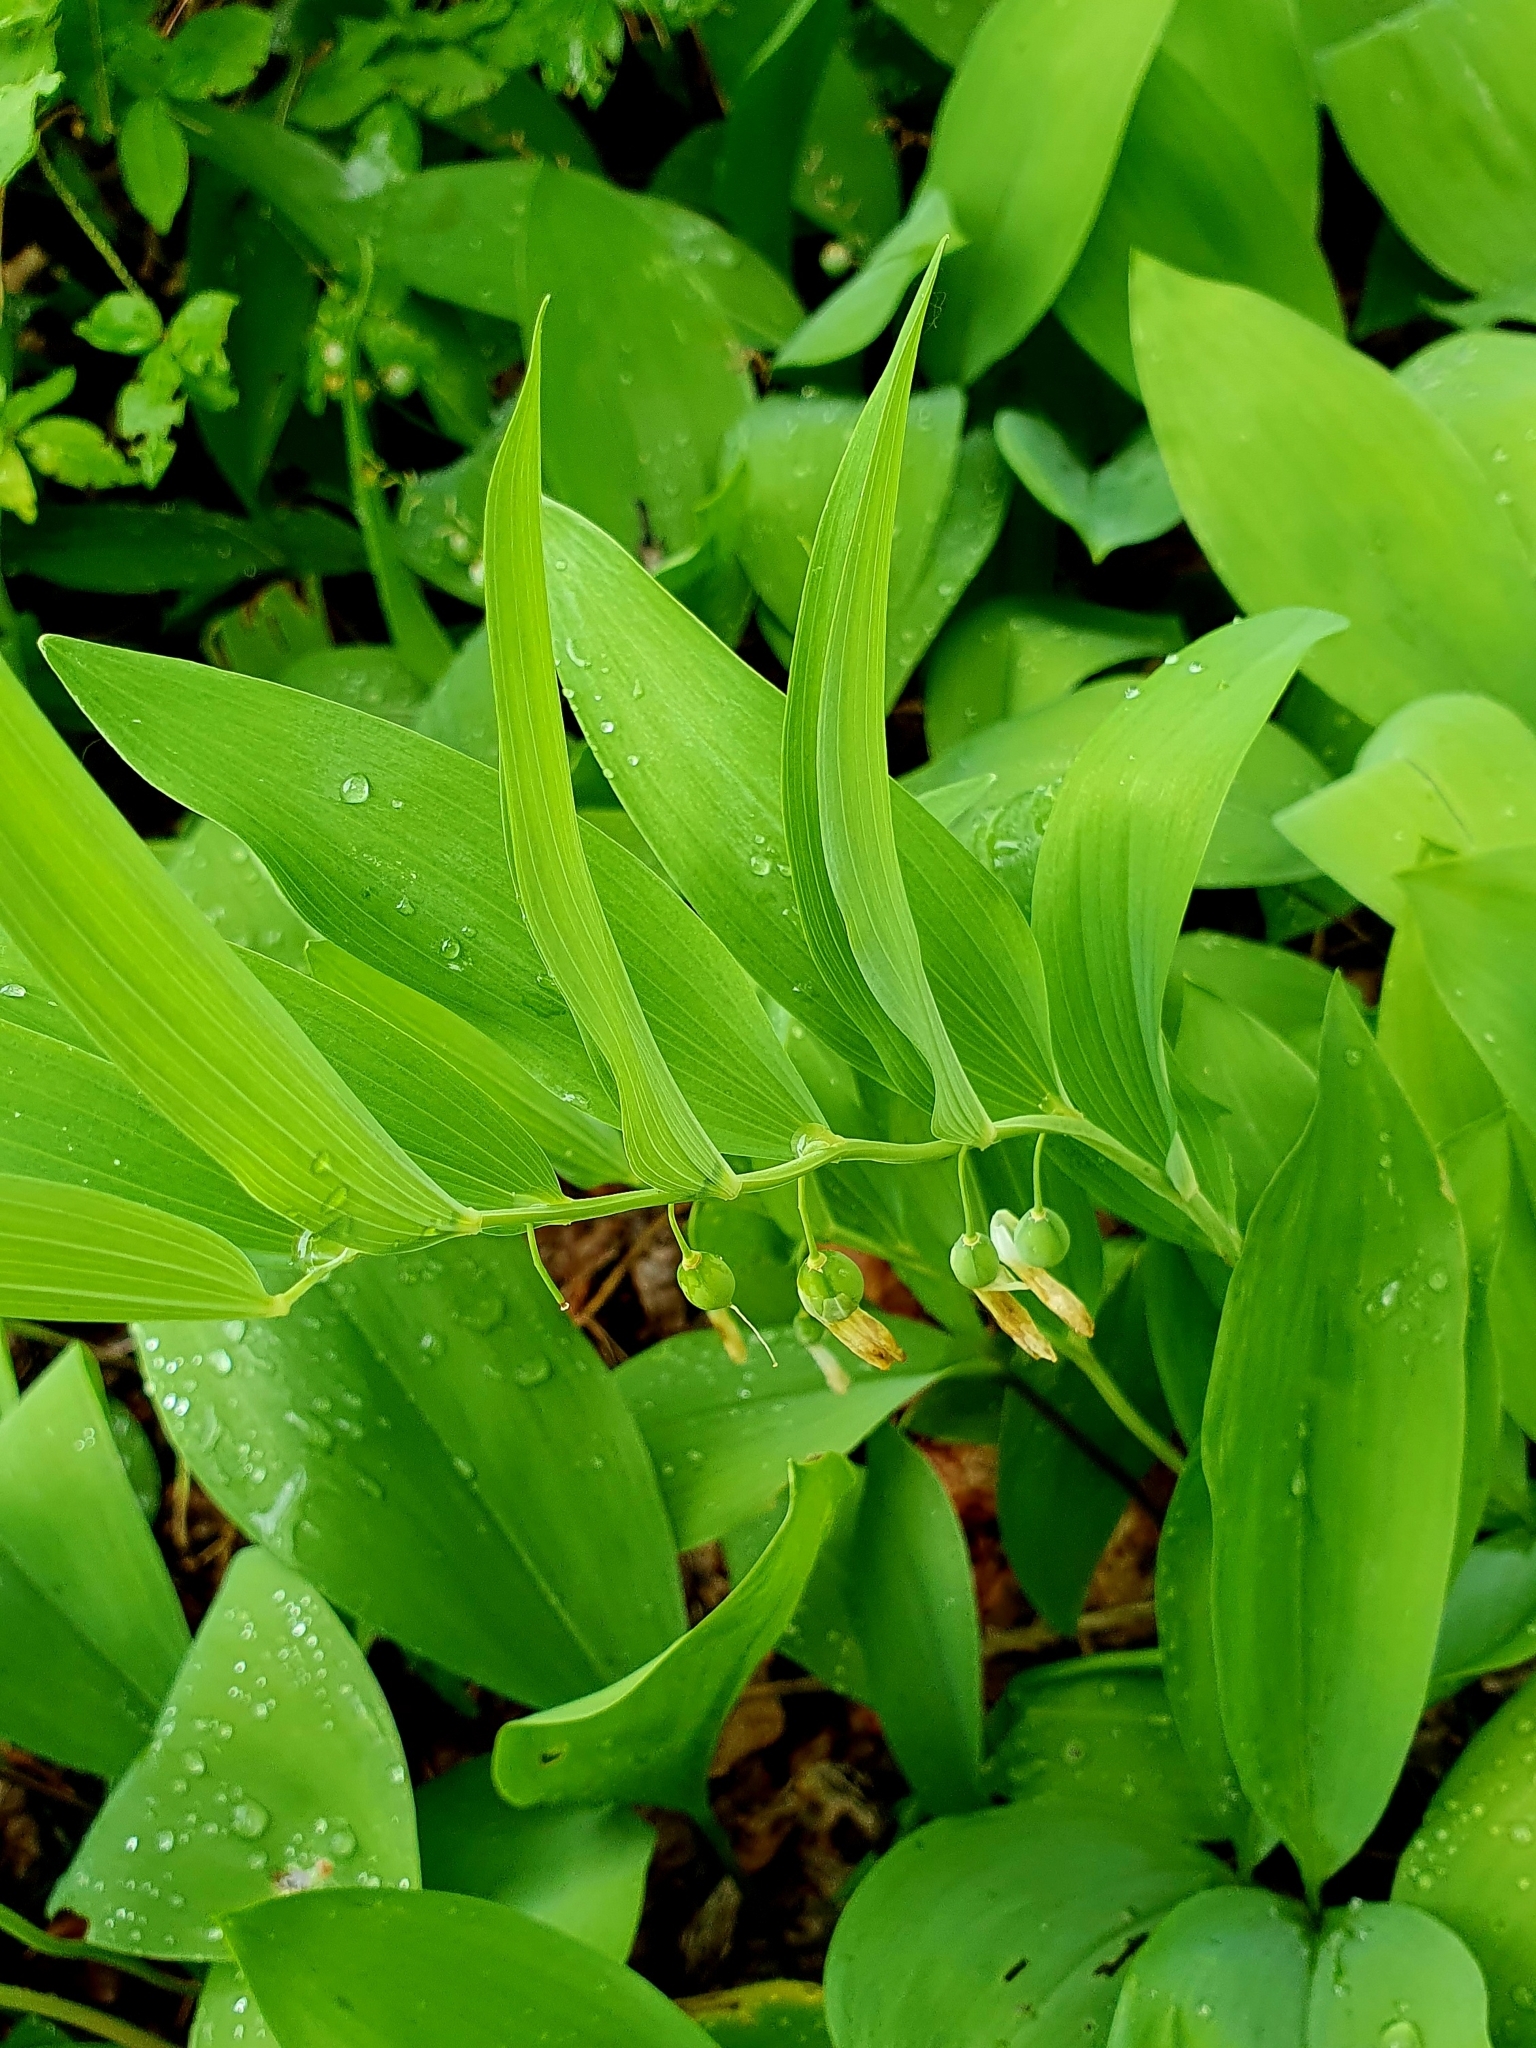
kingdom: Plantae
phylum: Tracheophyta
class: Liliopsida
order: Asparagales
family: Asparagaceae
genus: Polygonatum
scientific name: Polygonatum odoratum
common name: Angular solomon's-seal
